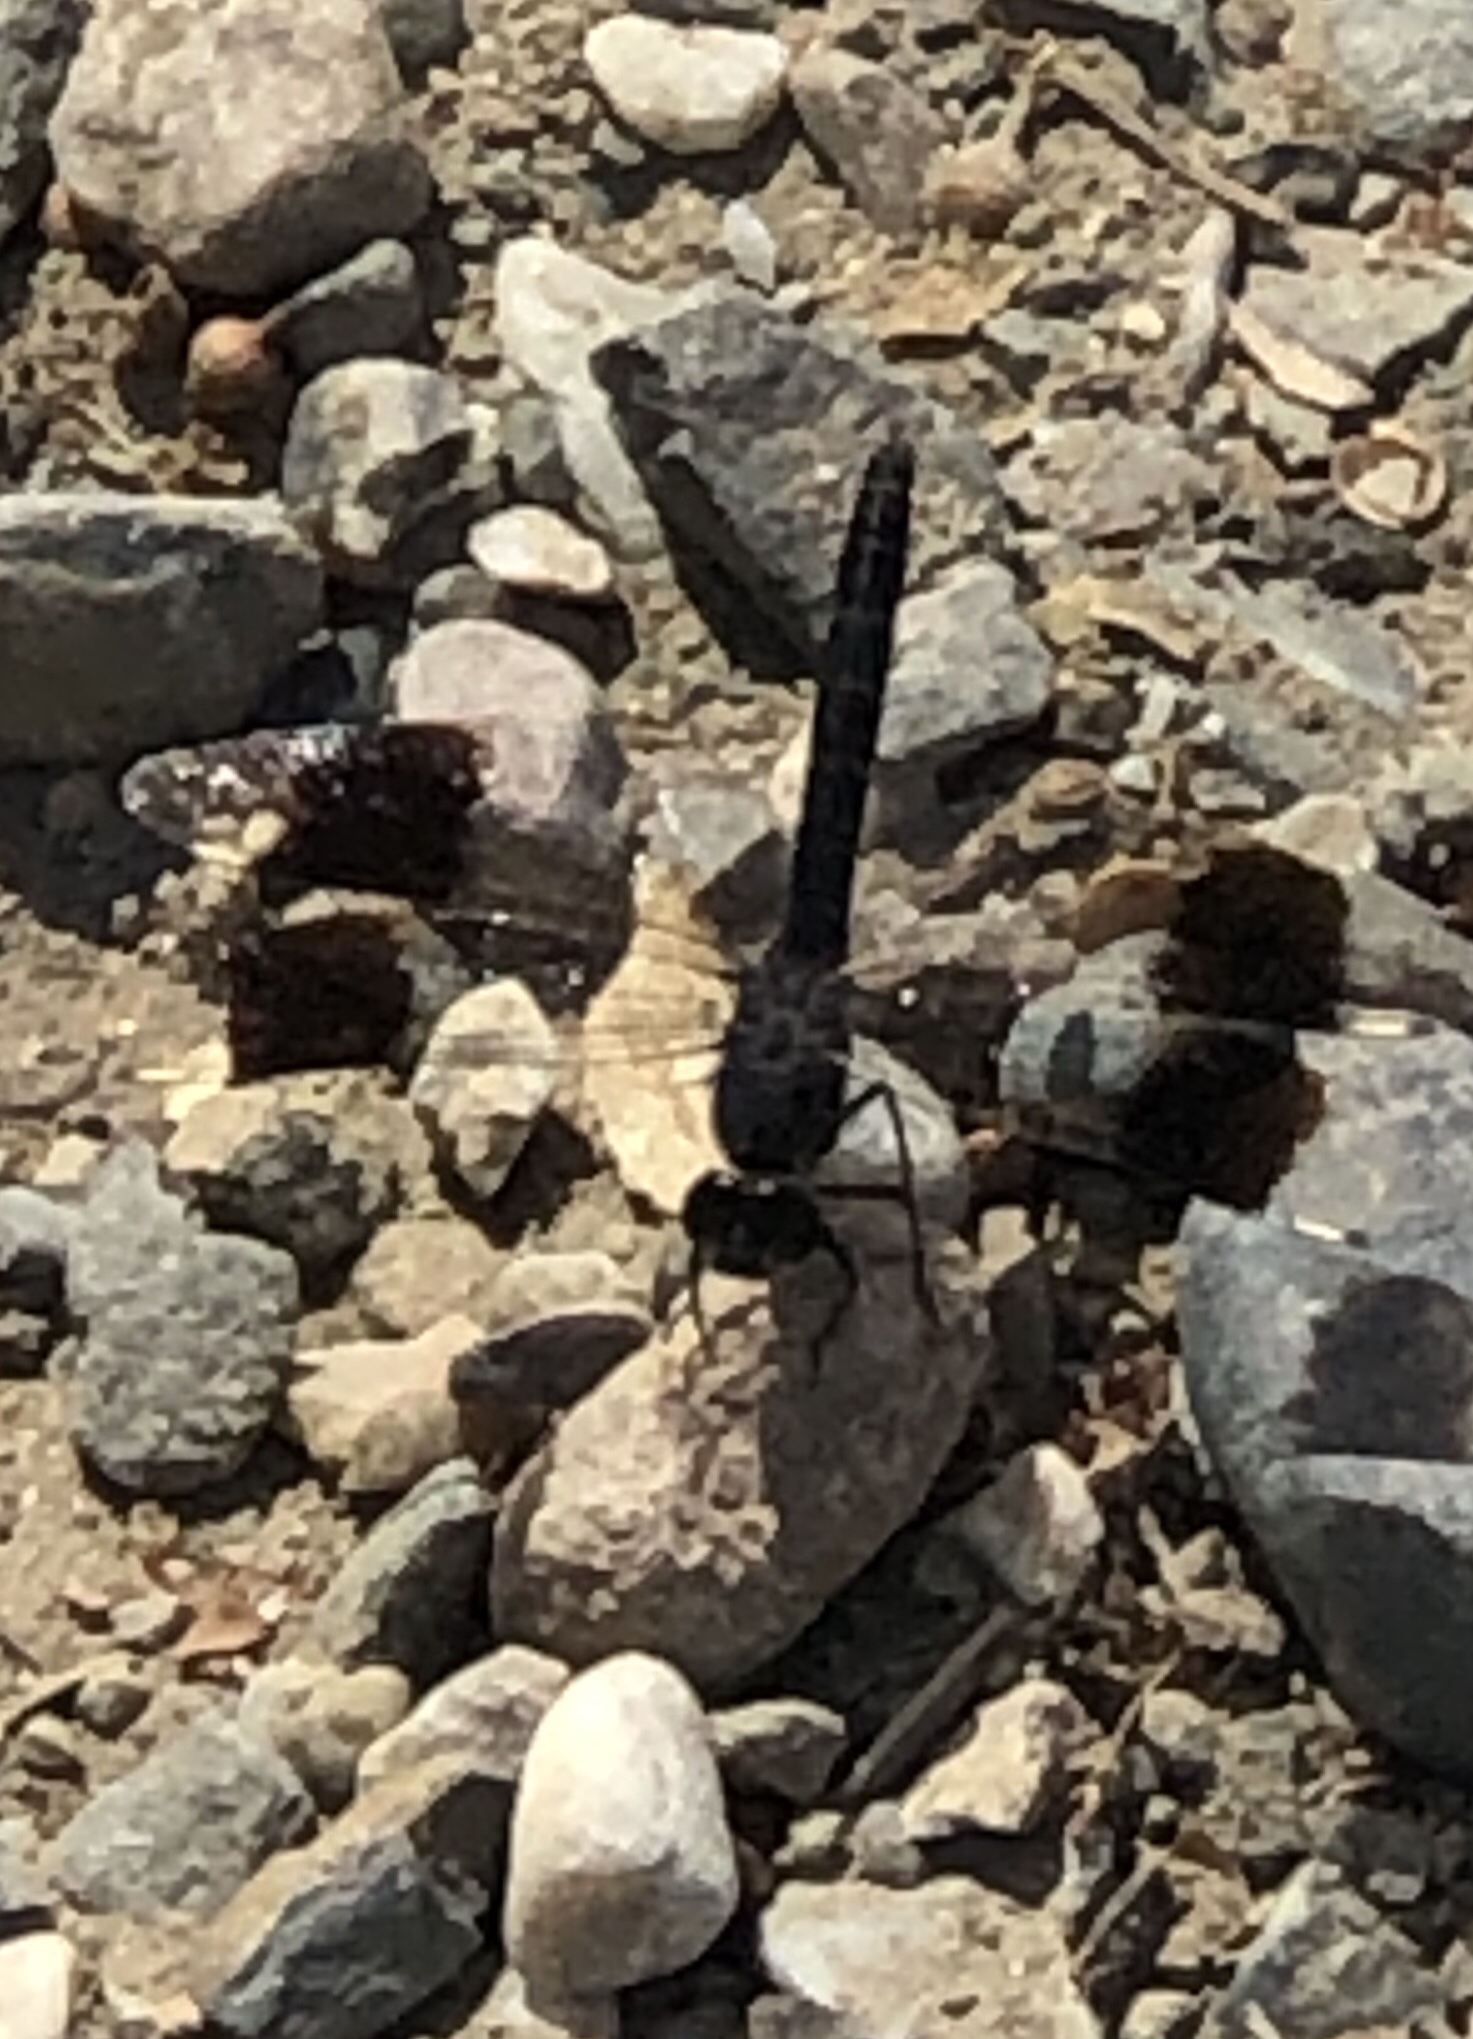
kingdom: Animalia
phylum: Arthropoda
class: Insecta
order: Odonata
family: Libellulidae
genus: Brachythemis
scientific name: Brachythemis impartita
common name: Banded groundling
